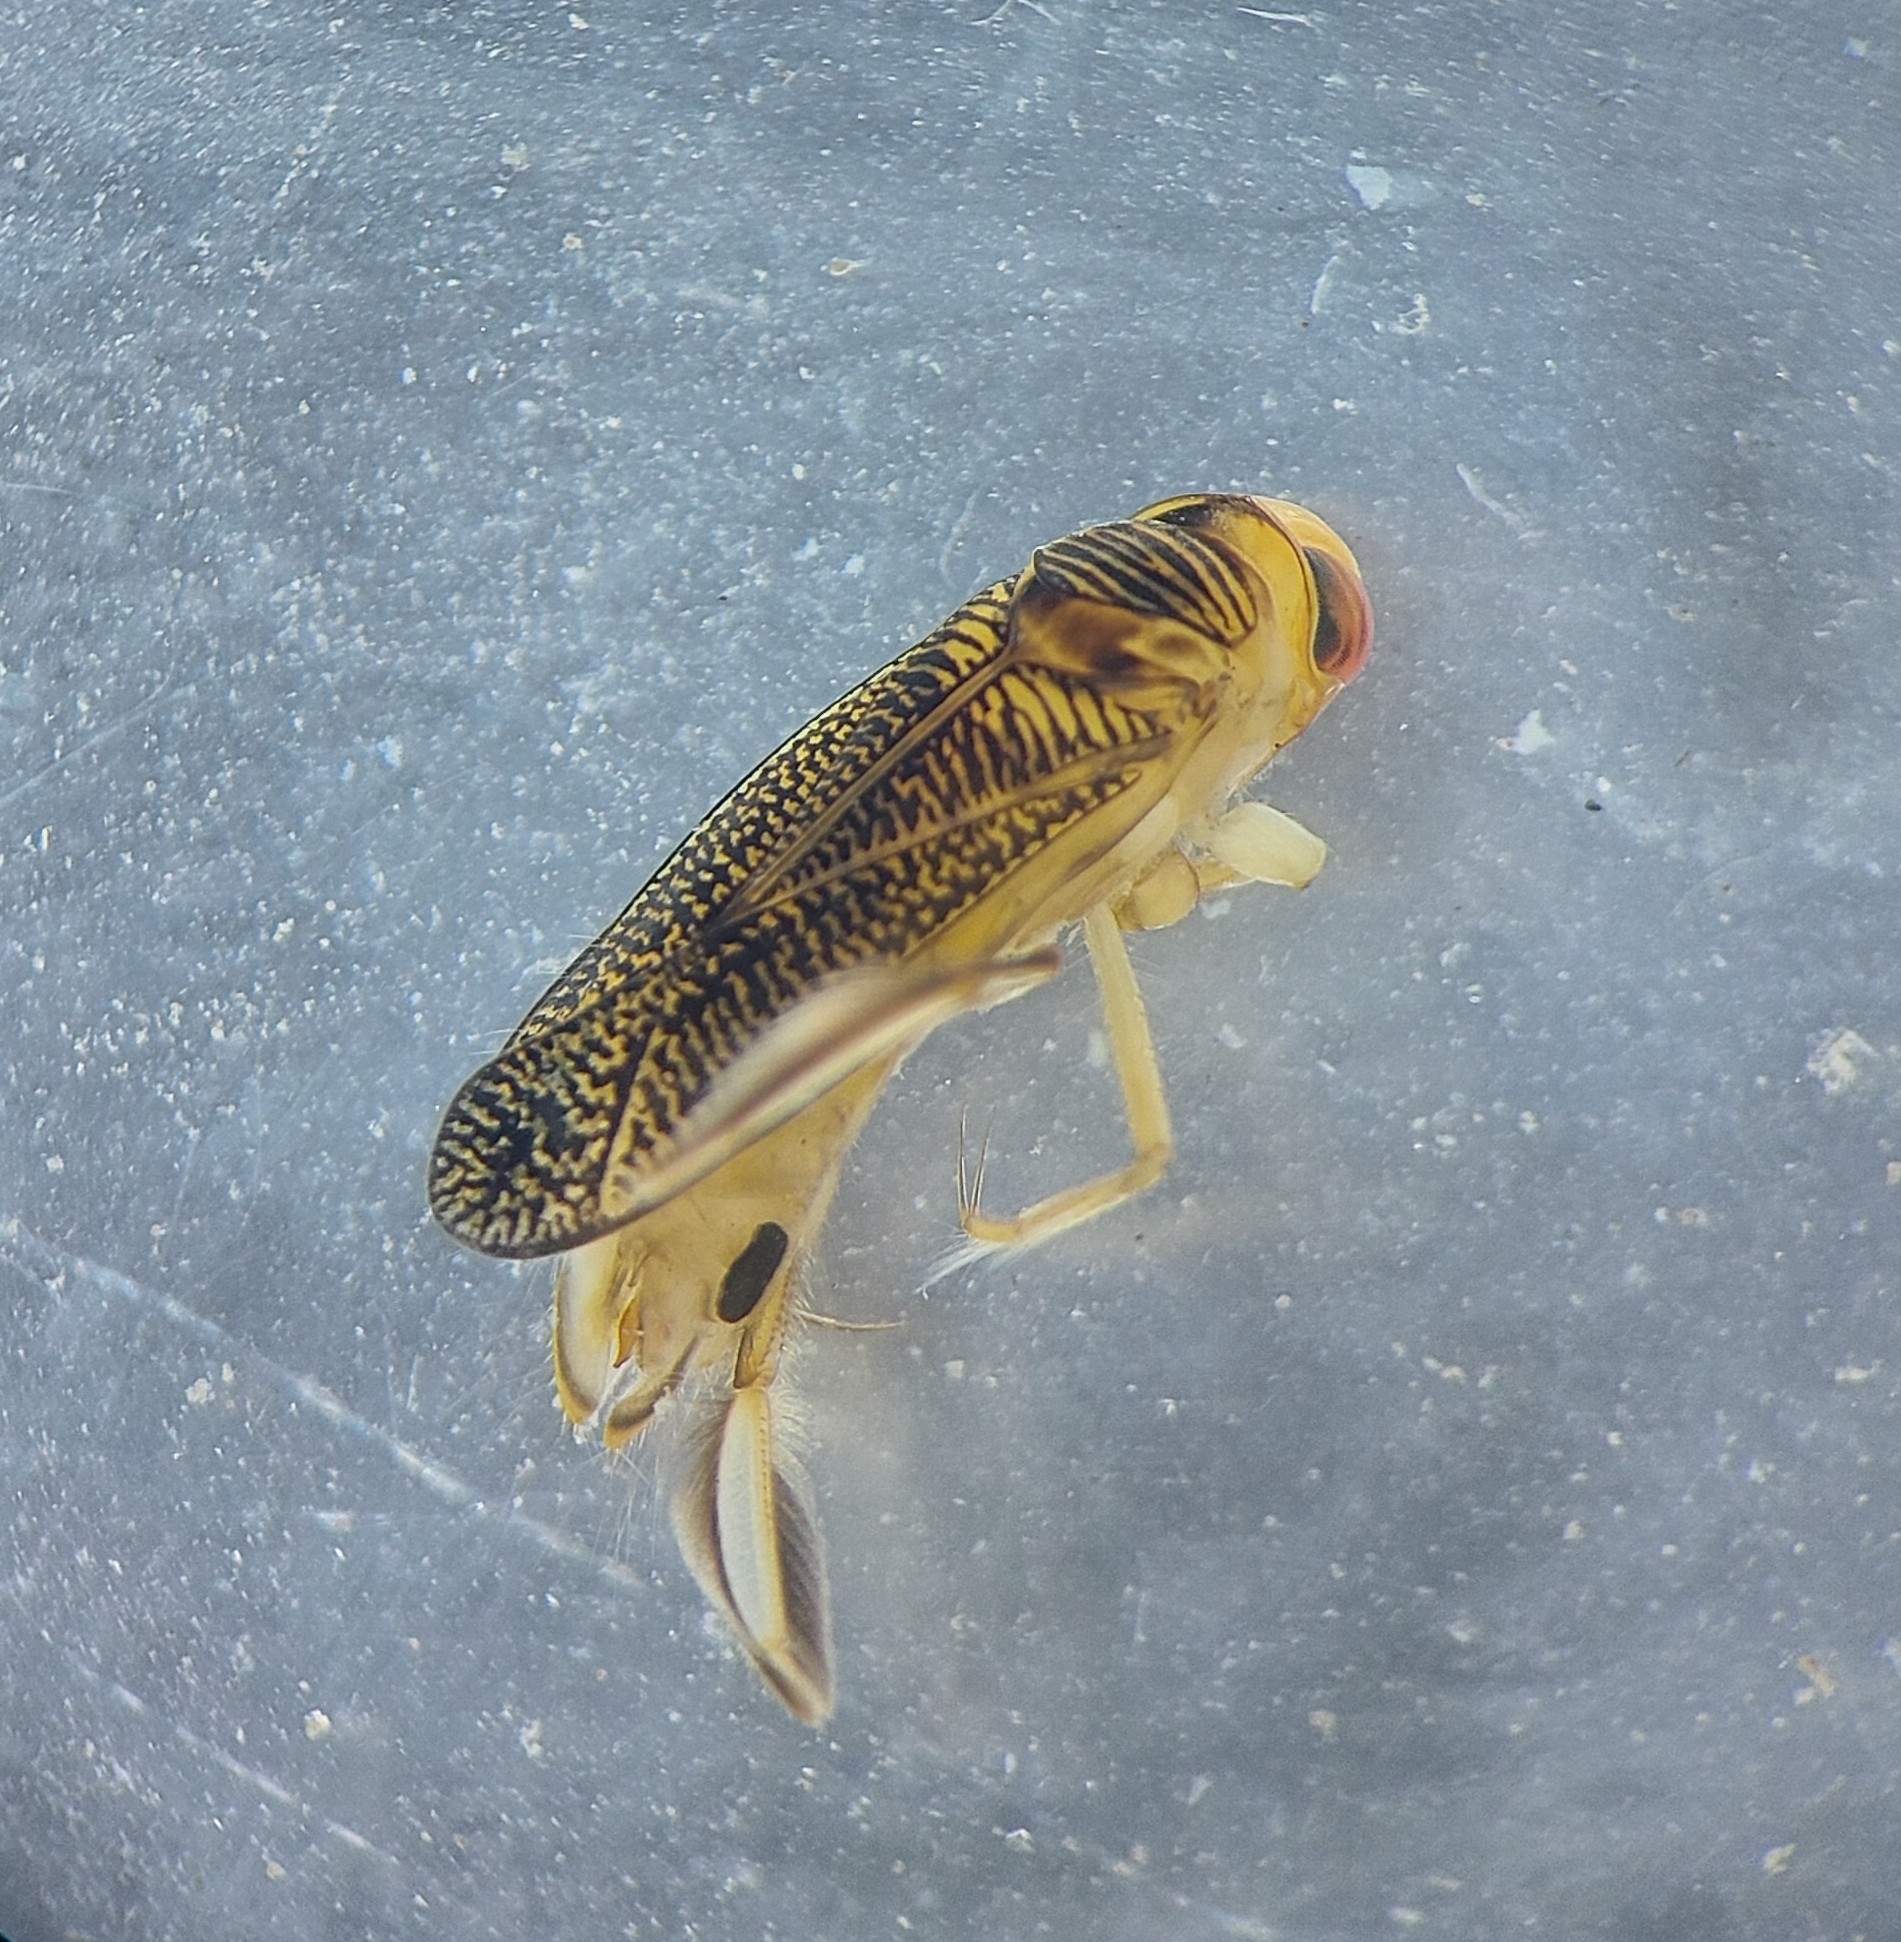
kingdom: Animalia
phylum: Arthropoda
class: Insecta
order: Hemiptera
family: Corixidae
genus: Sigara
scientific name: Sigara striata
